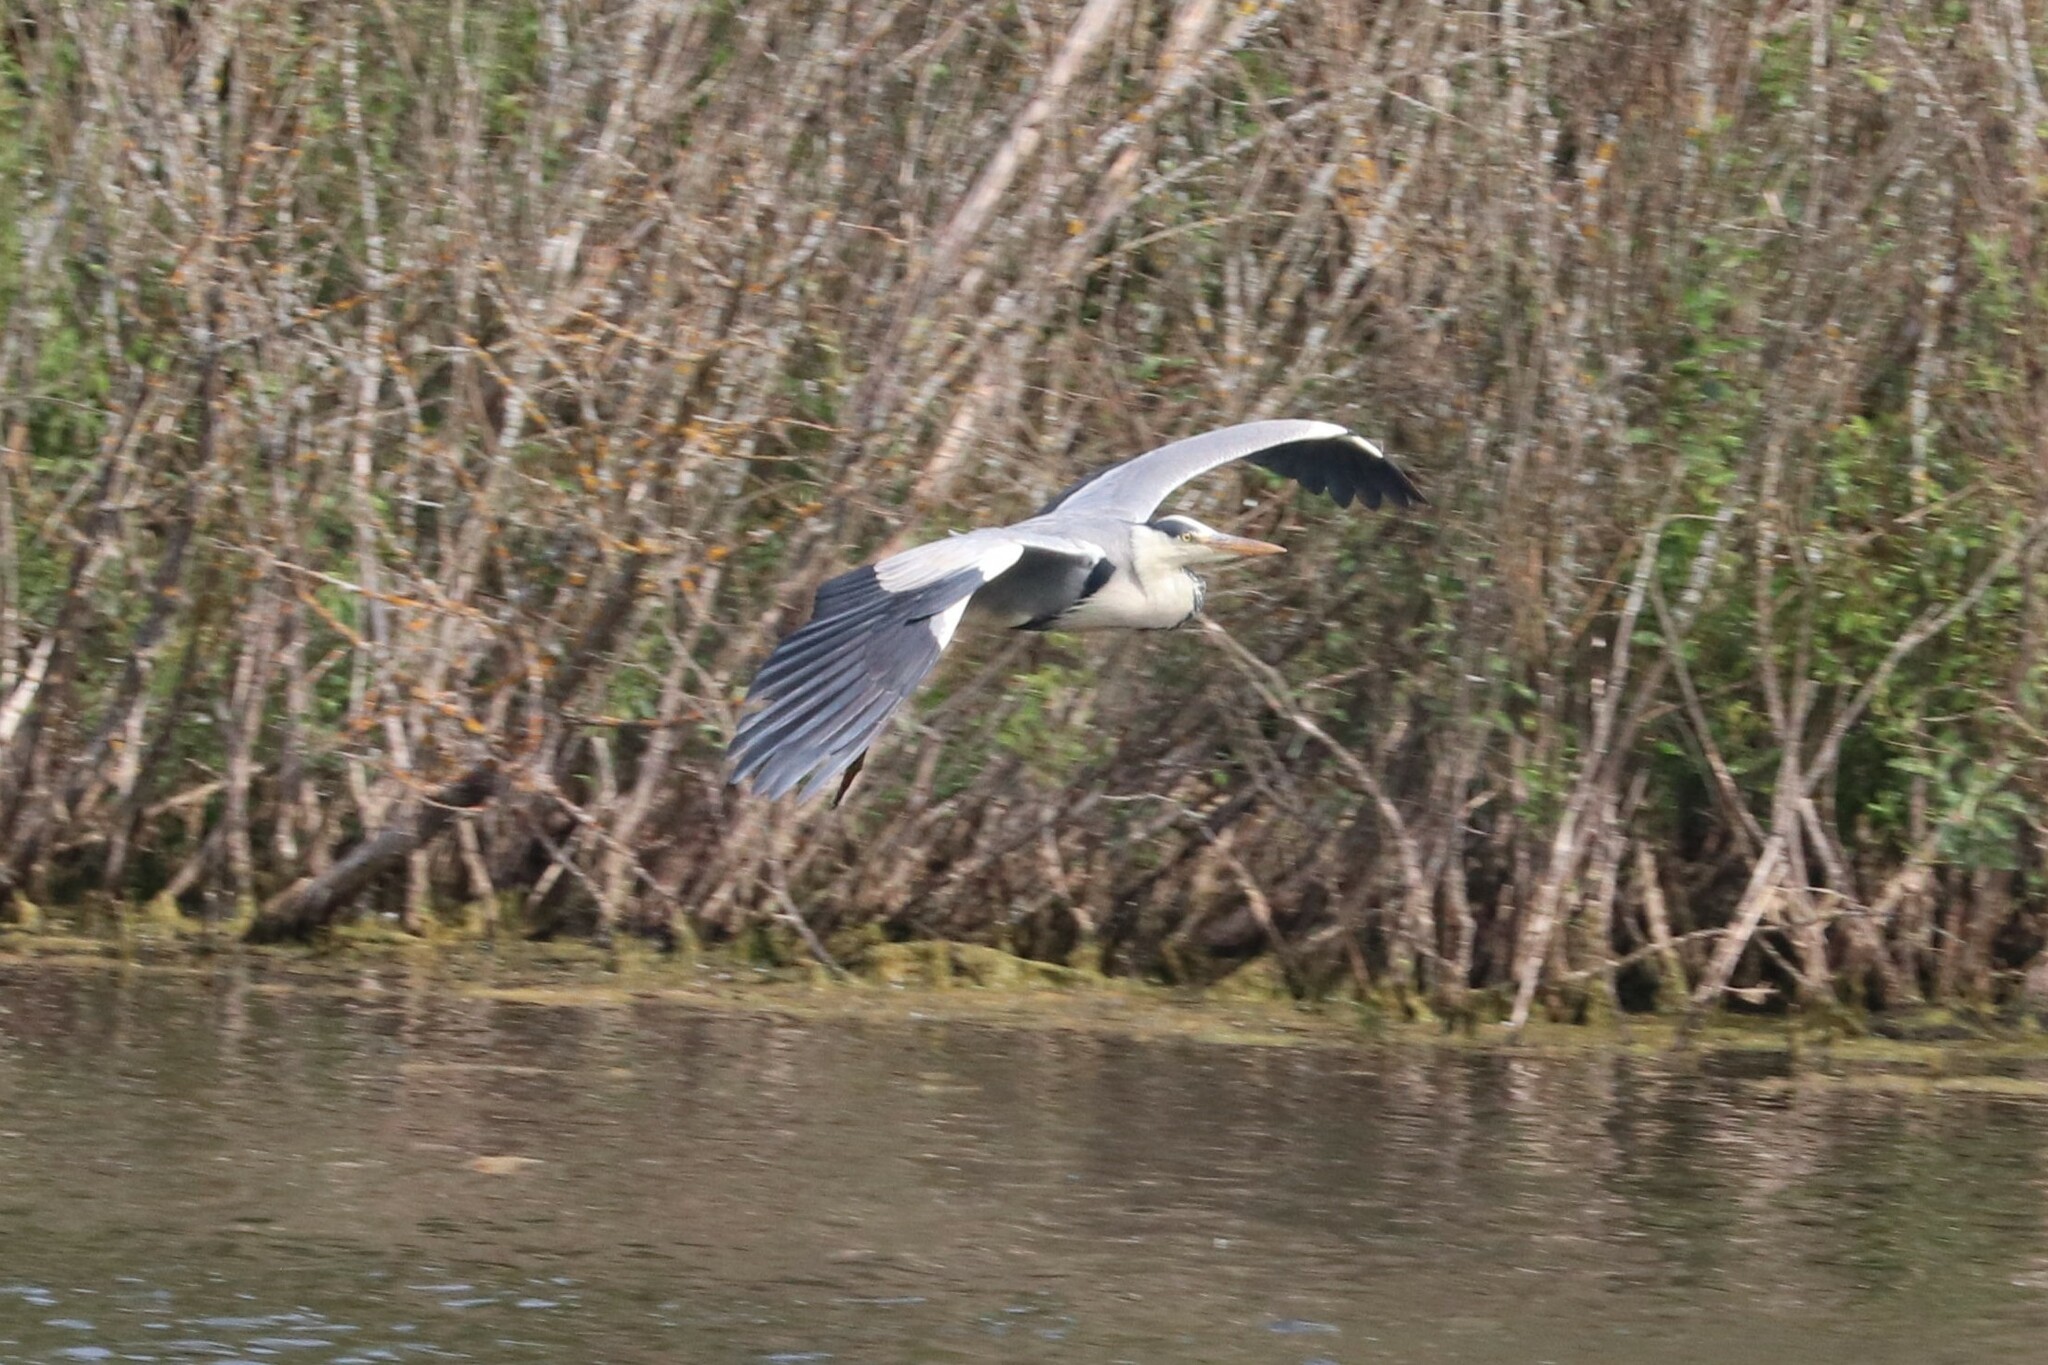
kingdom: Animalia
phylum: Chordata
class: Aves
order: Pelecaniformes
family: Ardeidae
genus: Ardea
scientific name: Ardea cinerea
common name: Grey heron
